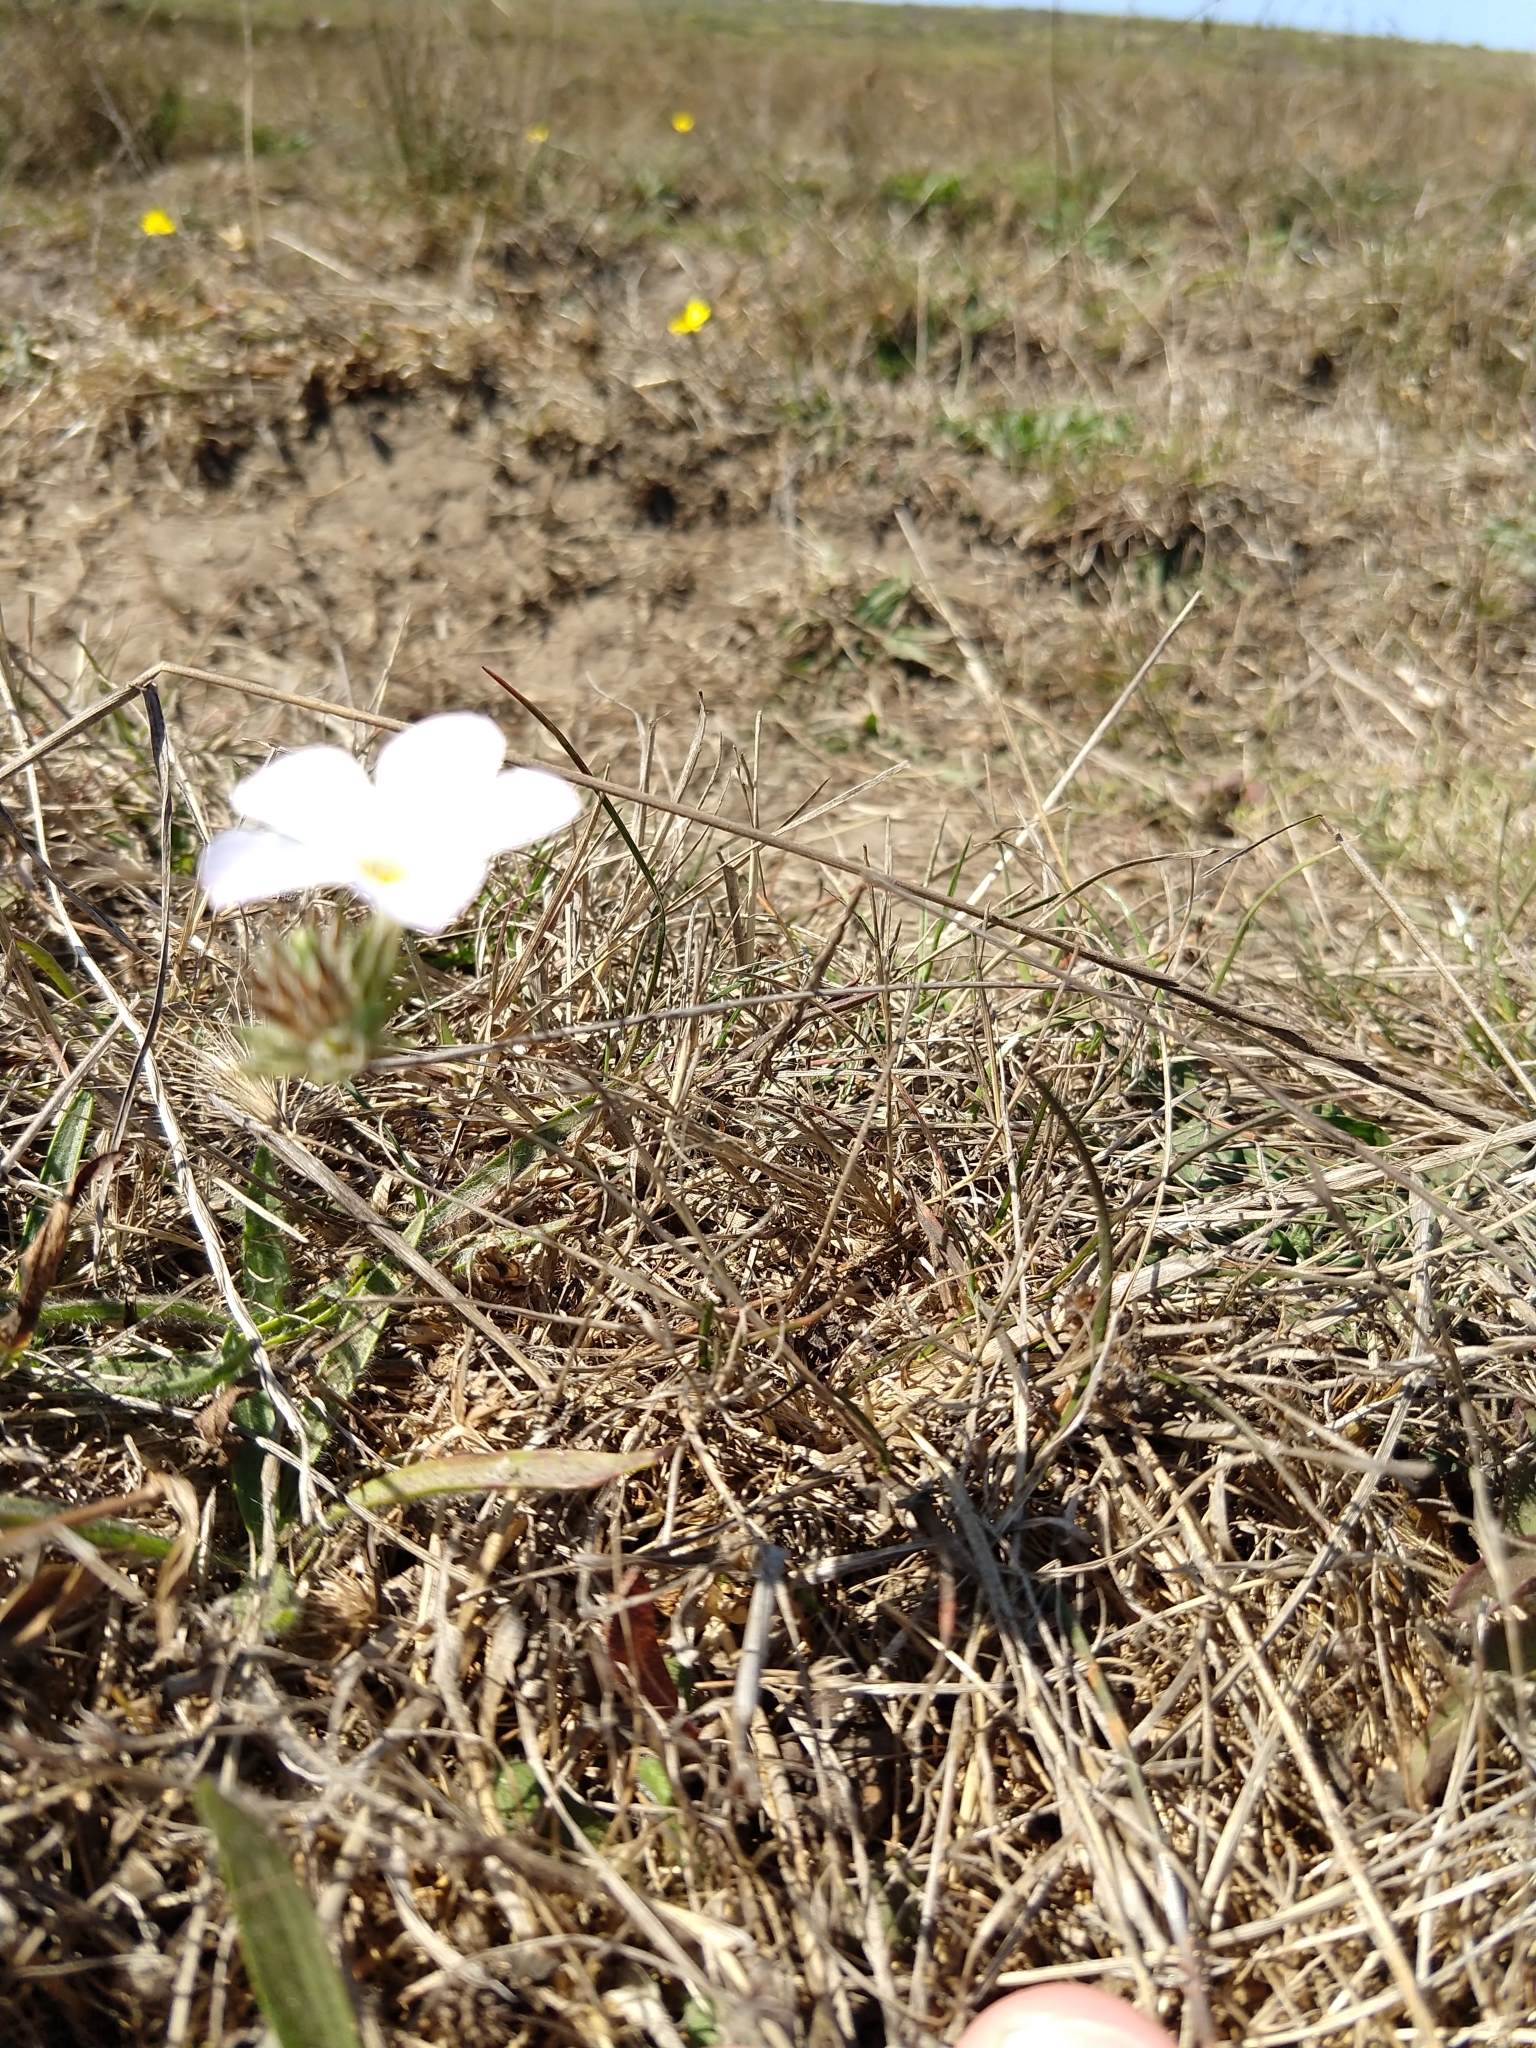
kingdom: Plantae
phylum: Tracheophyta
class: Magnoliopsida
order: Ericales
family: Polemoniaceae
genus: Leptosiphon
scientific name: Leptosiphon grandiflorus
